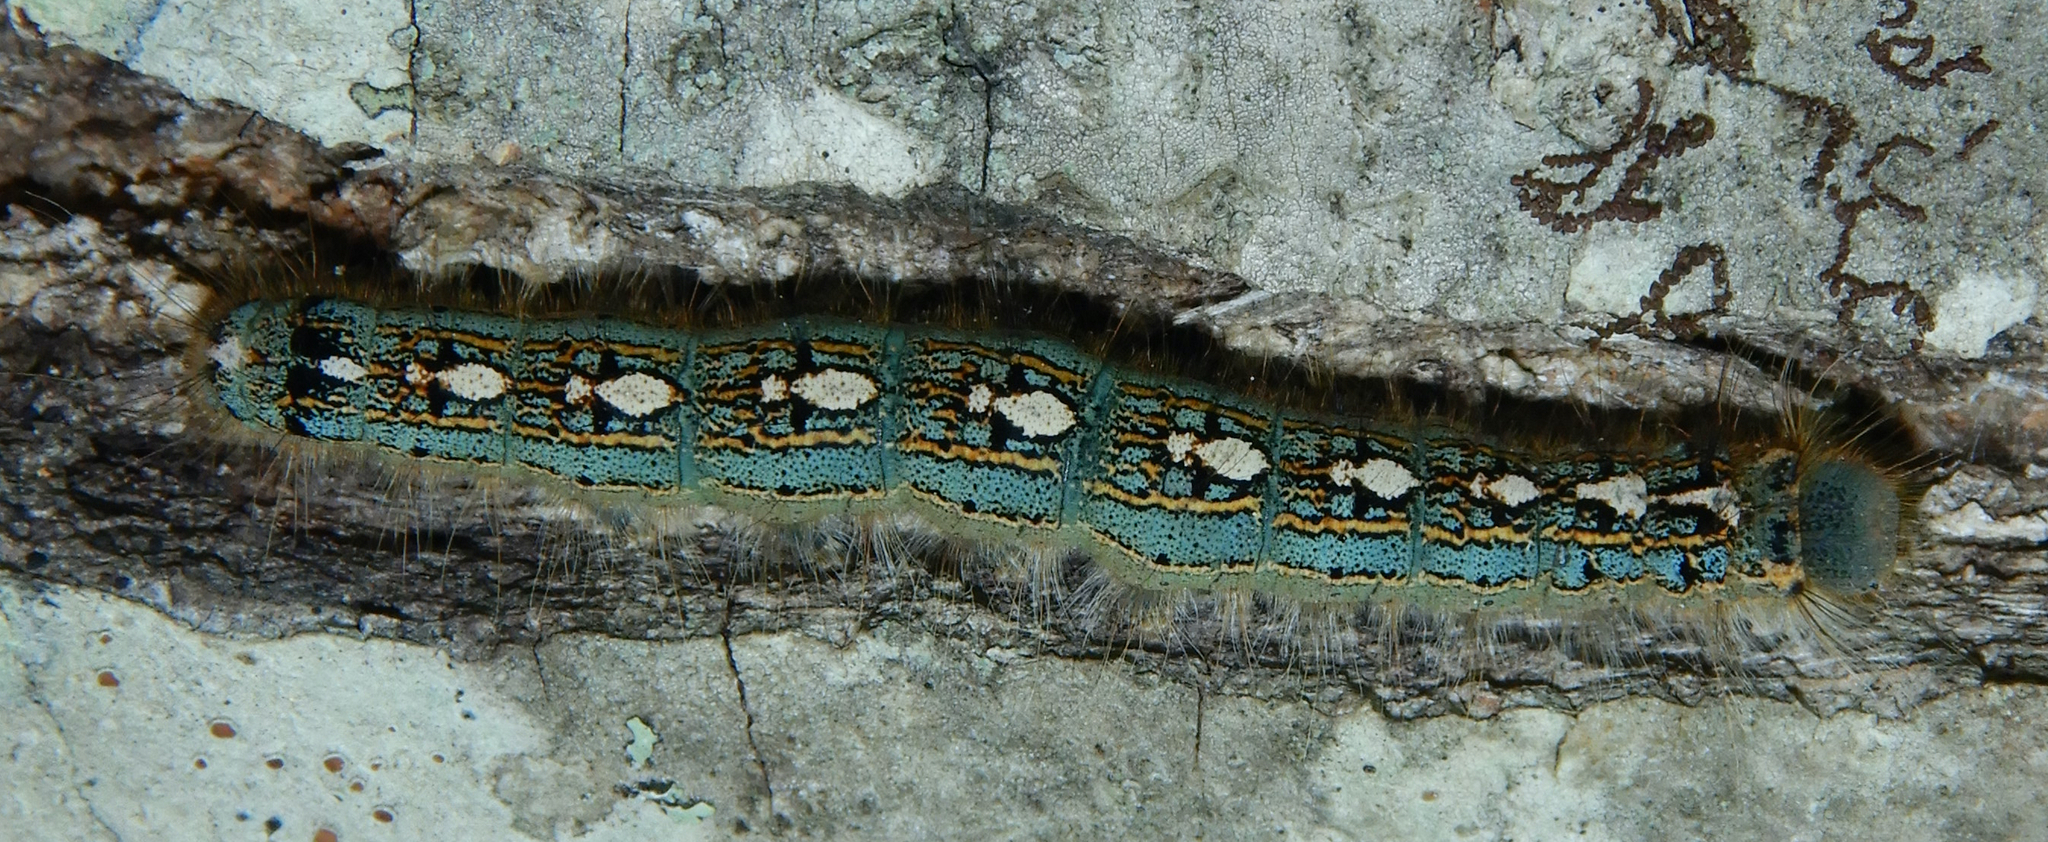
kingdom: Animalia
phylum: Arthropoda
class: Insecta
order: Lepidoptera
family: Lasiocampidae
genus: Malacosoma
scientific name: Malacosoma disstria
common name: Forest tent caterpillar
